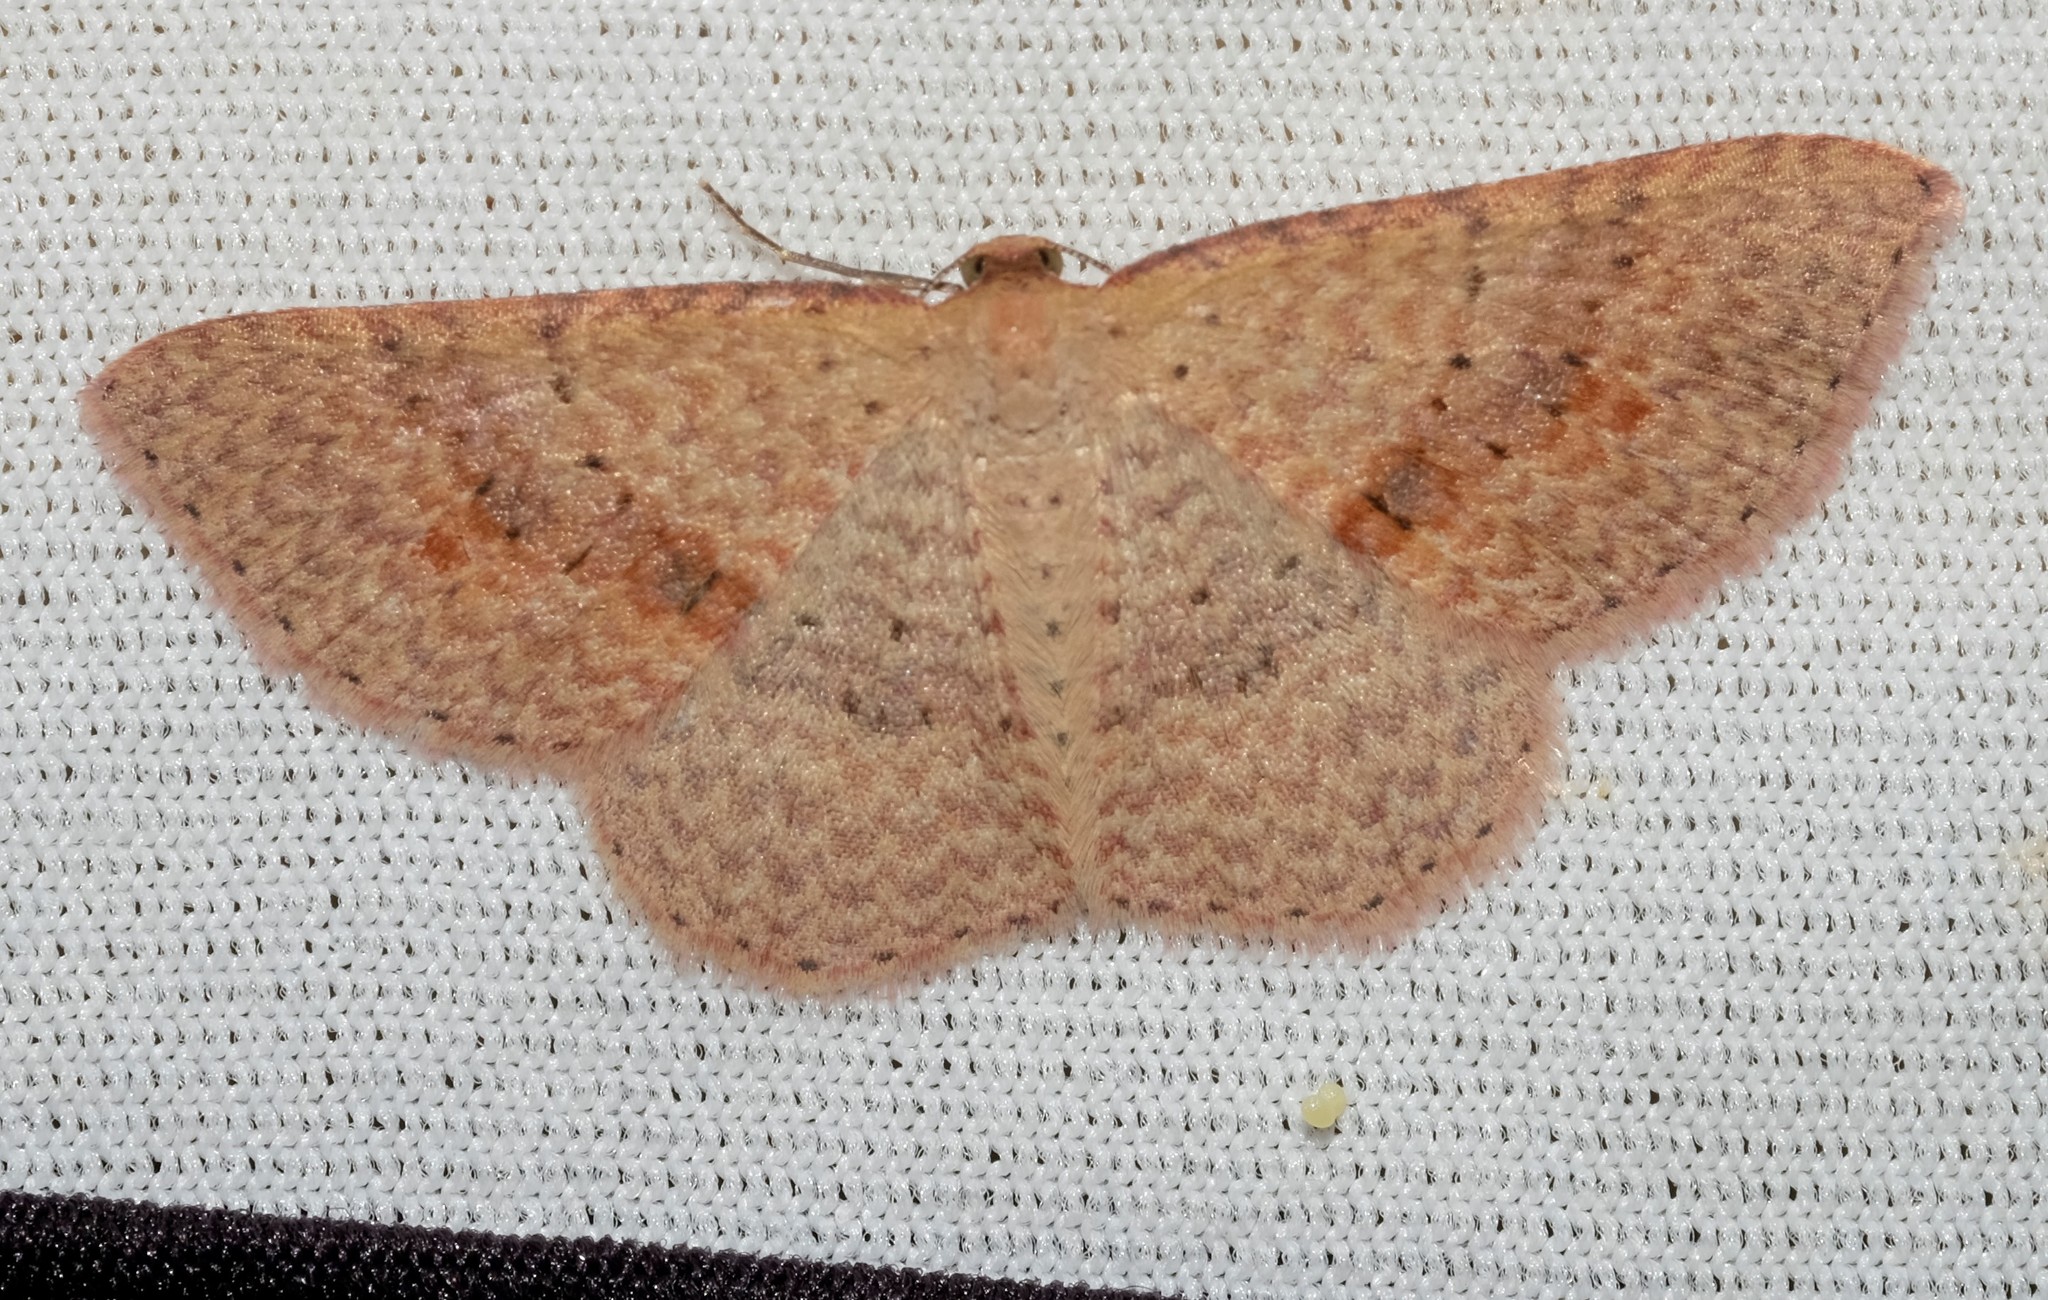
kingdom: Animalia
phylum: Arthropoda
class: Insecta
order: Lepidoptera
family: Geometridae
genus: Epicyme
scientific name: Epicyme rubropunctaria
